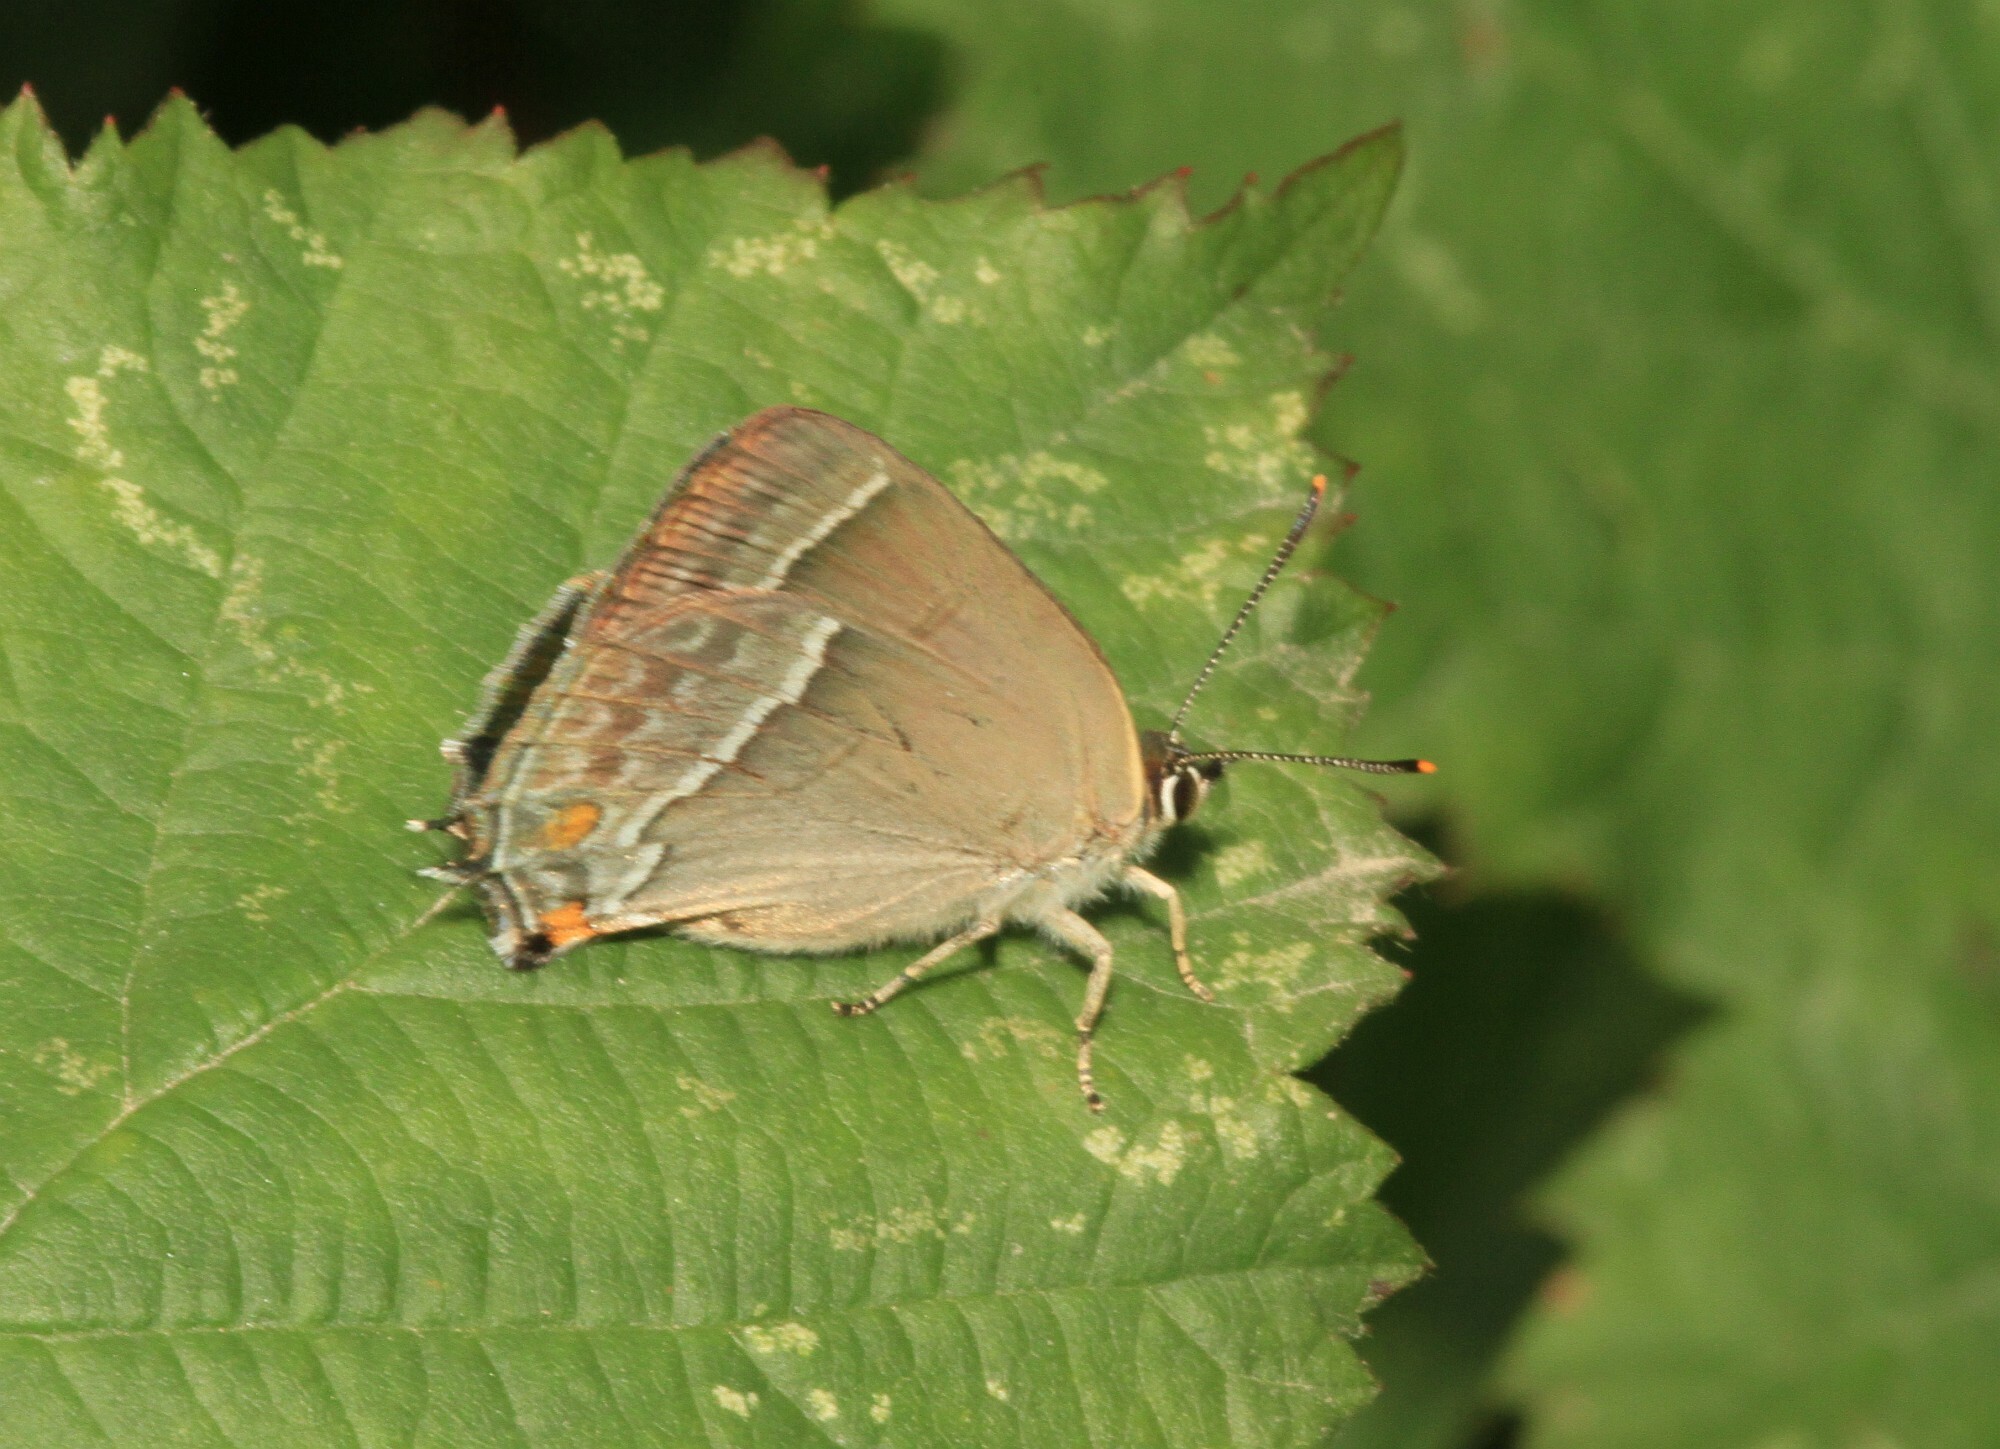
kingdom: Animalia
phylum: Arthropoda
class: Insecta
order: Lepidoptera
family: Lycaenidae
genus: Quercusia
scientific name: Quercusia quercus
